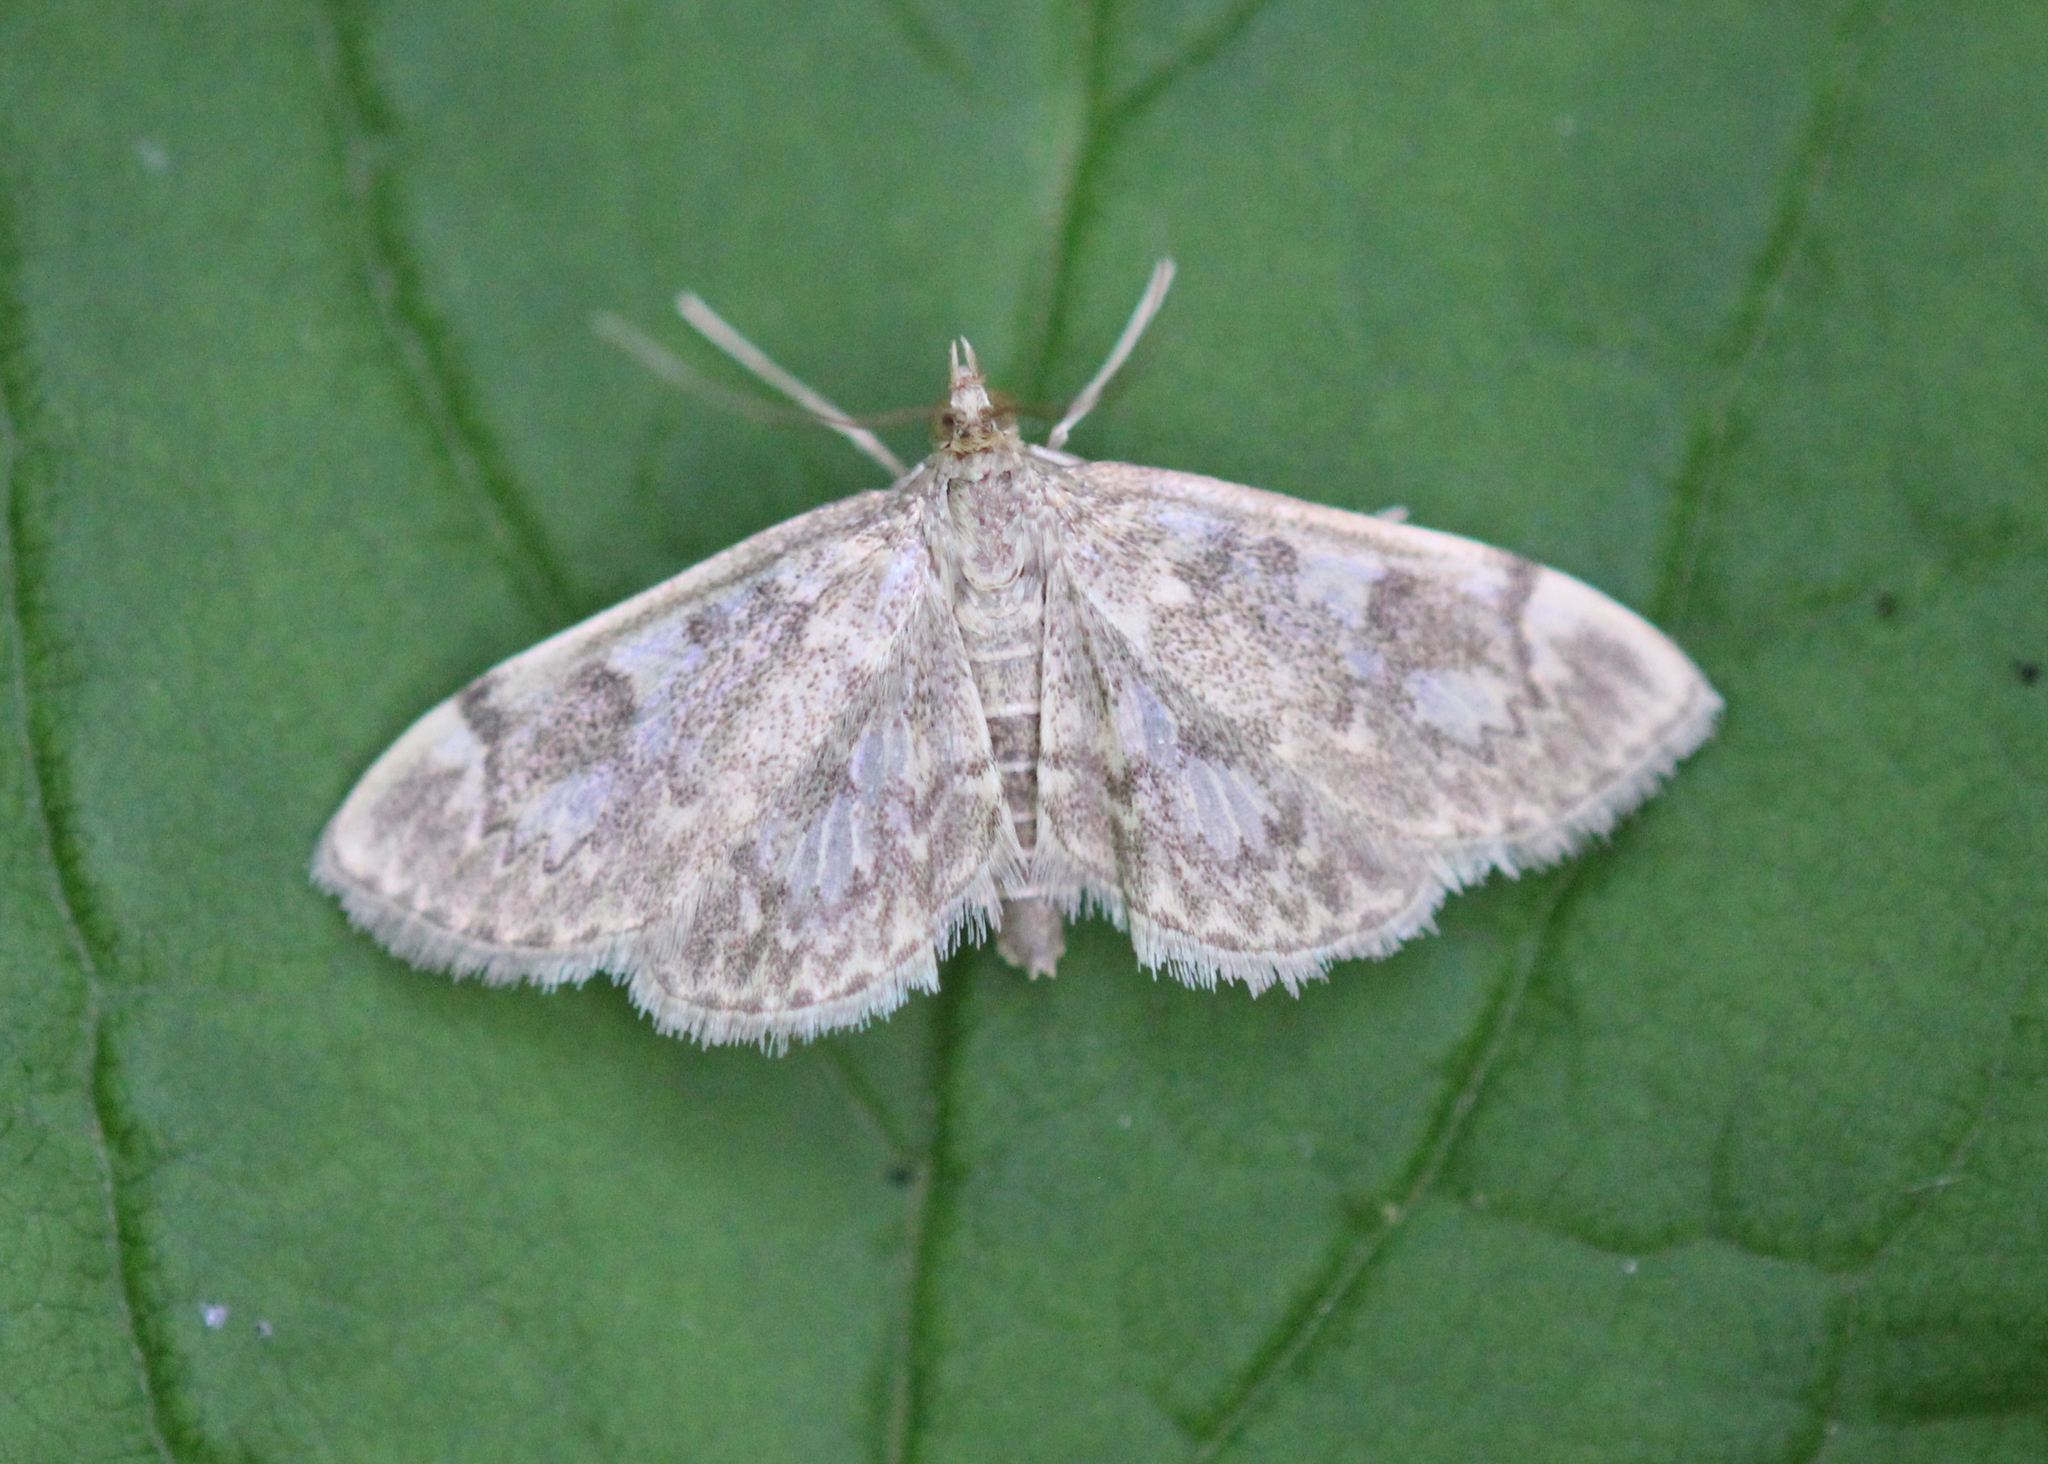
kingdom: Animalia
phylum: Arthropoda
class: Insecta
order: Lepidoptera
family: Crambidae
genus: Anania
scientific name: Anania
